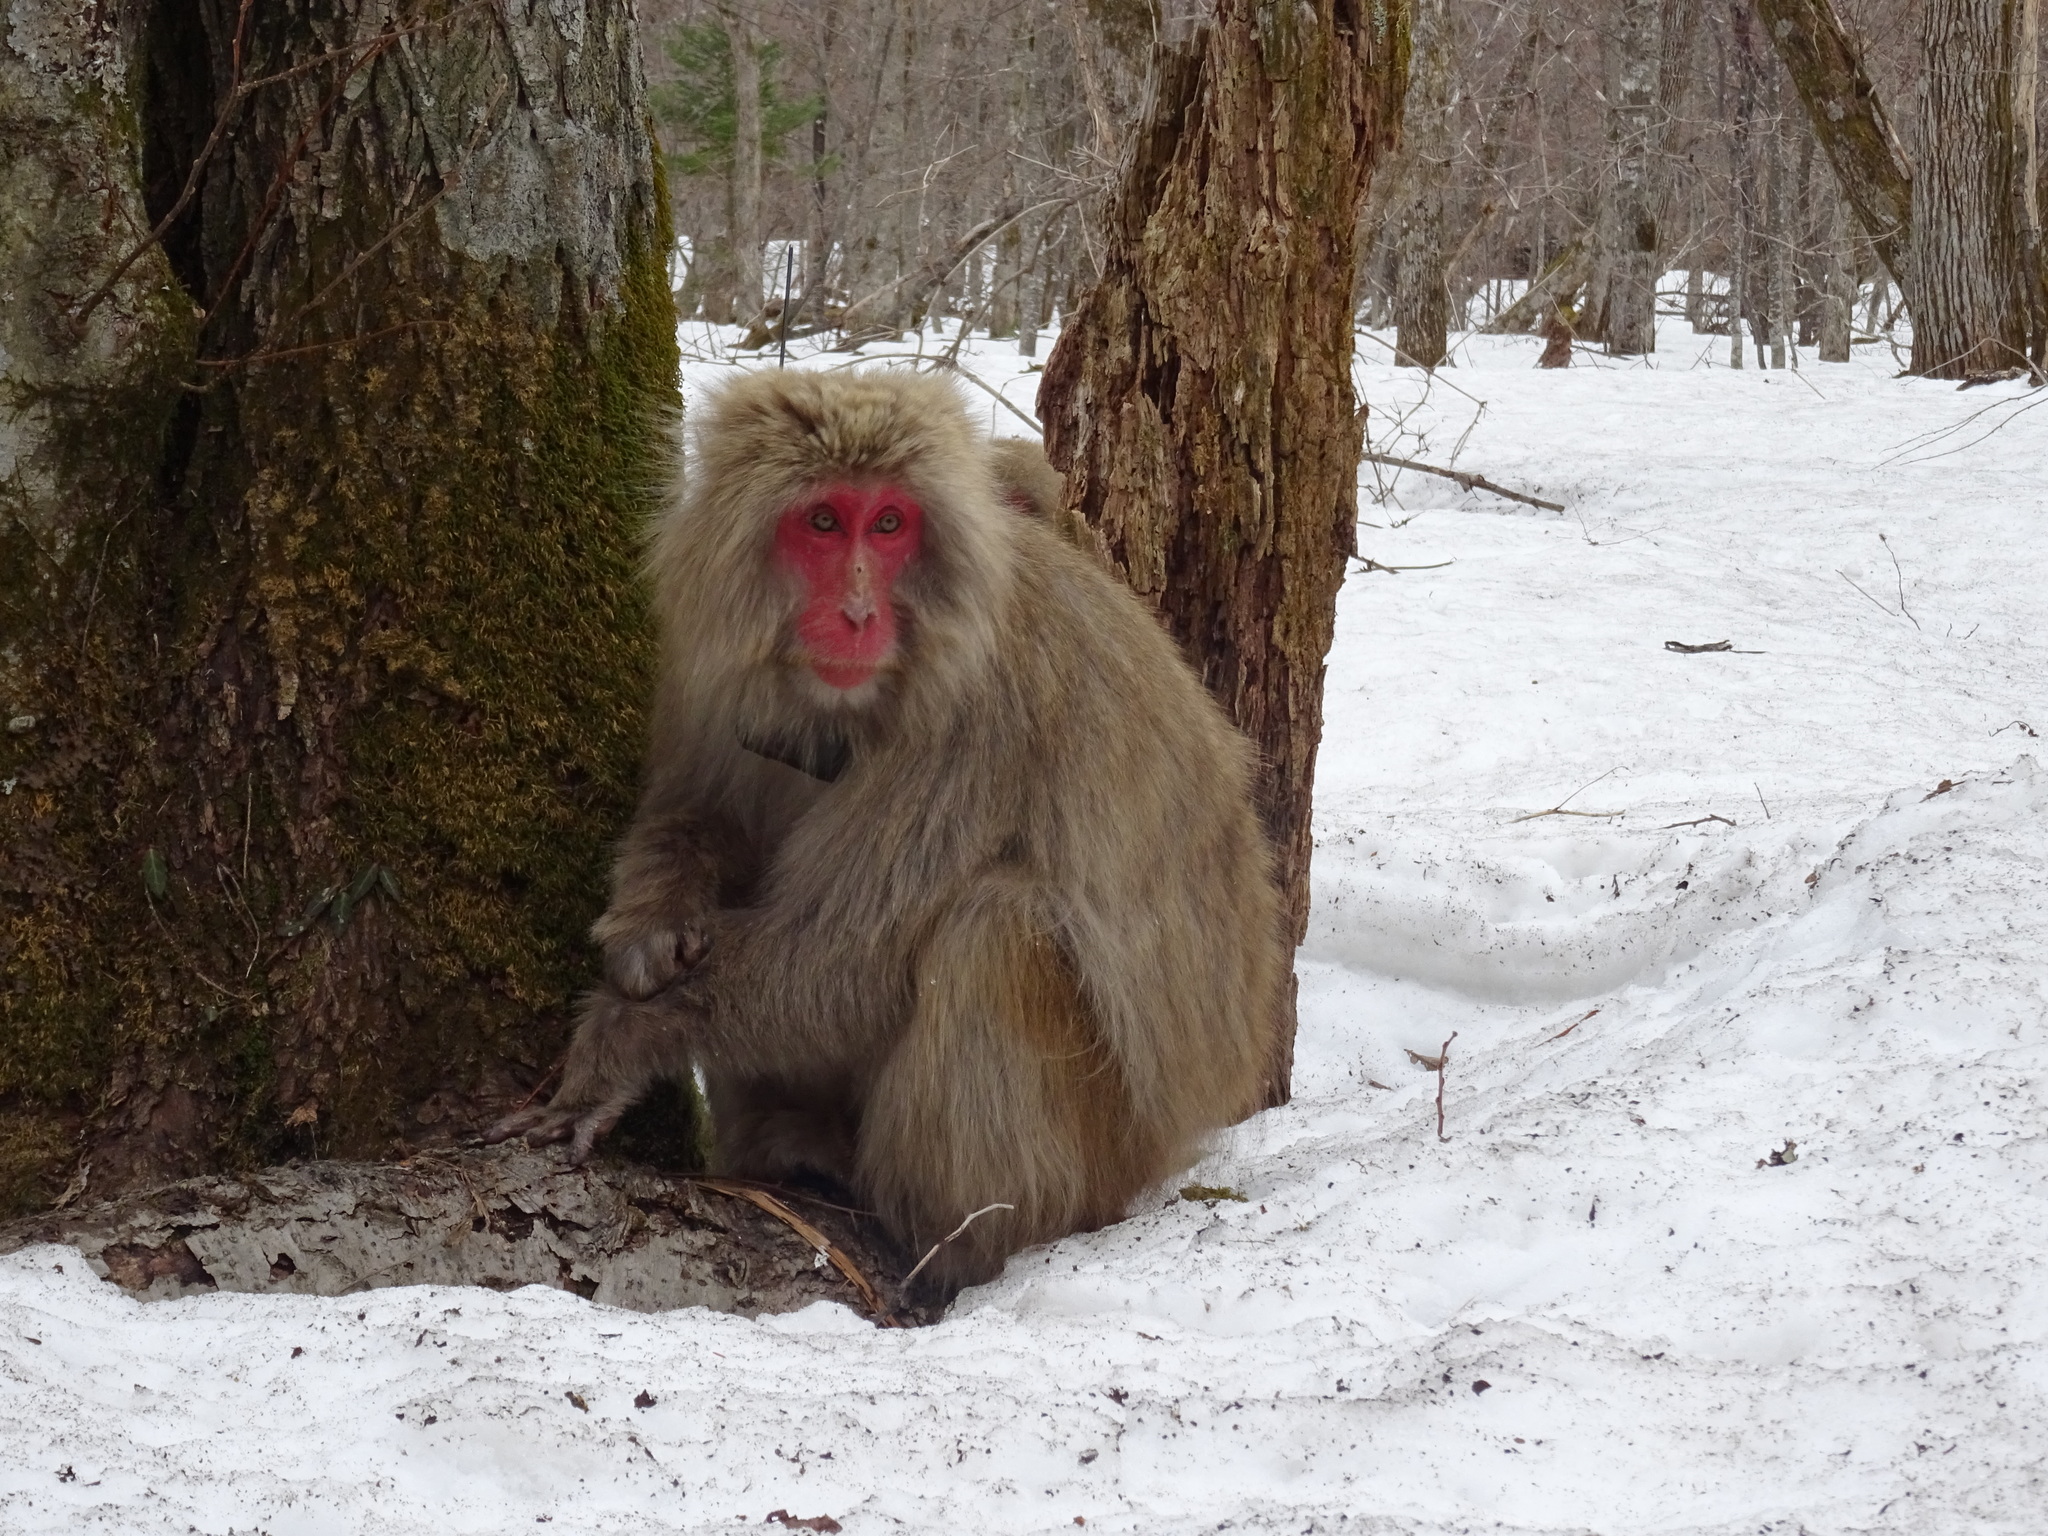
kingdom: Animalia
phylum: Chordata
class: Mammalia
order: Primates
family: Cercopithecidae
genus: Macaca
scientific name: Macaca fuscata
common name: Japanese macaque
